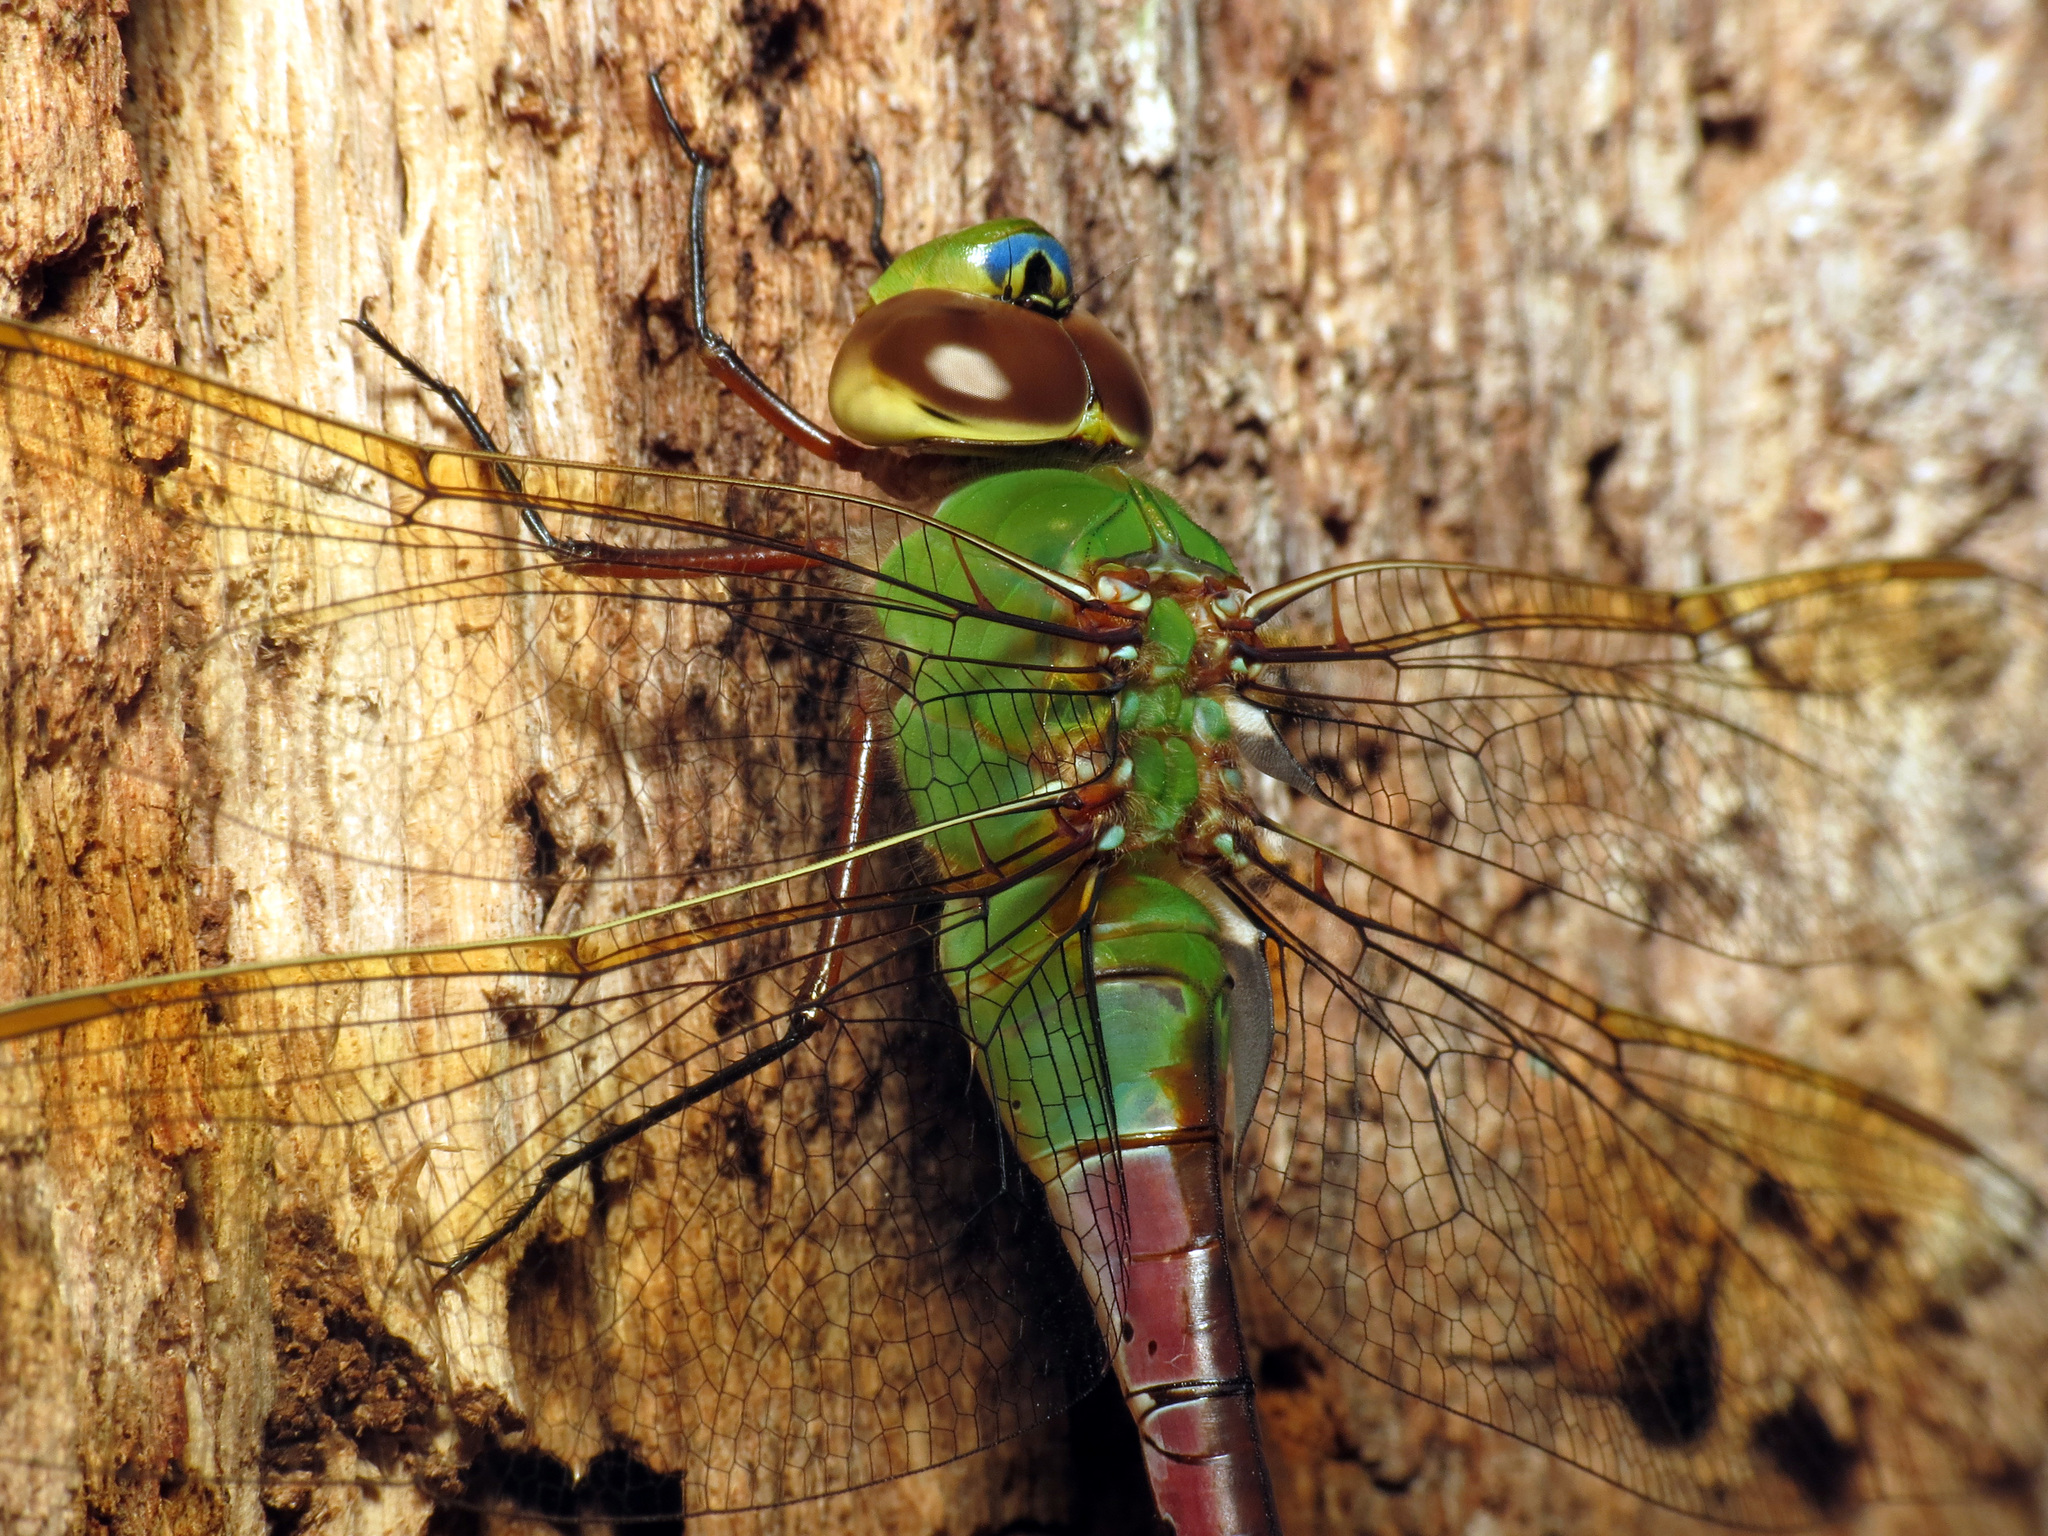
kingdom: Animalia
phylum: Arthropoda
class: Insecta
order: Odonata
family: Aeshnidae
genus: Anax
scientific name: Anax junius
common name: Common green darner
